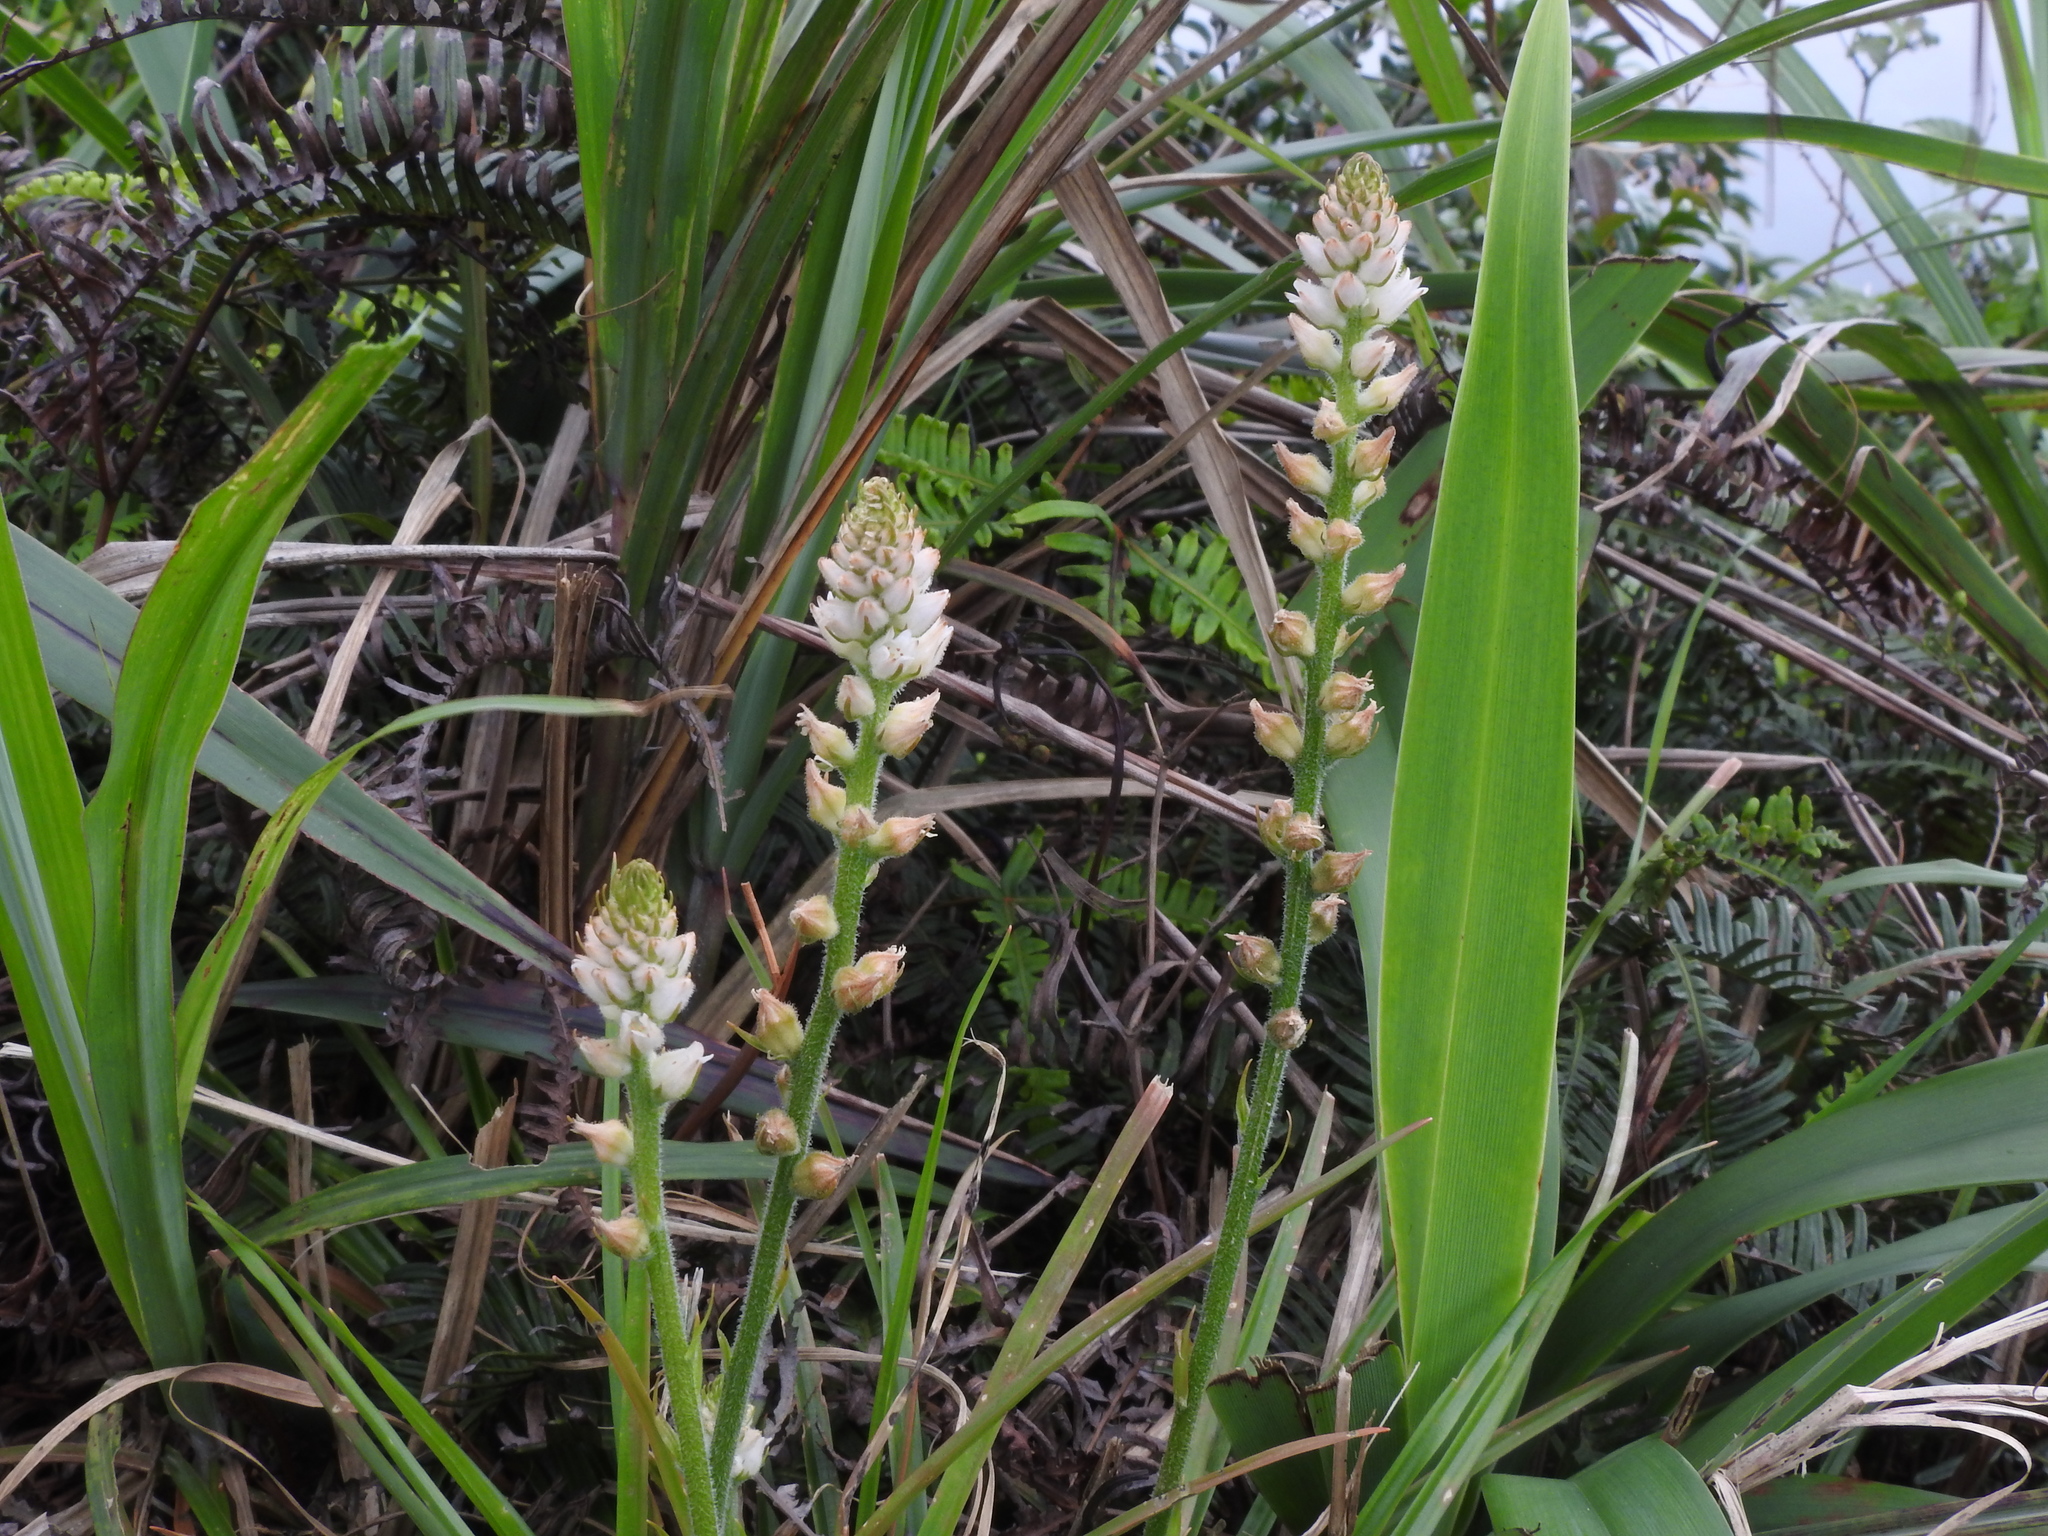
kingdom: Plantae
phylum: Tracheophyta
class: Liliopsida
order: Dioscoreales
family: Nartheciaceae
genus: Aletris
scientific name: Aletris spicata
